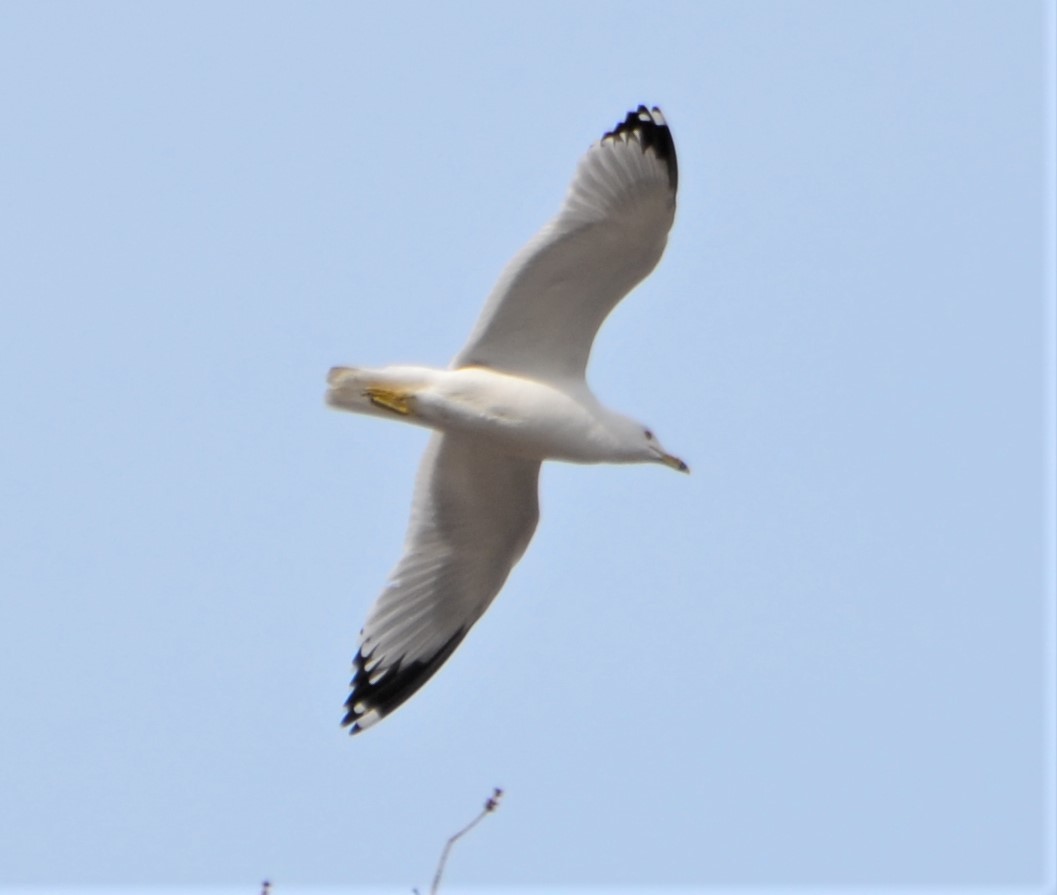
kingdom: Animalia
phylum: Chordata
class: Aves
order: Charadriiformes
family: Laridae
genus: Larus
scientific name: Larus delawarensis
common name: Ring-billed gull
